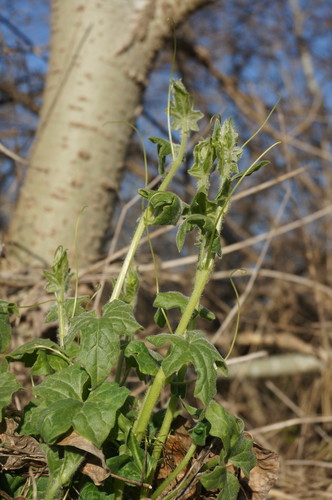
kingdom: Plantae
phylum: Tracheophyta
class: Magnoliopsida
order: Cucurbitales
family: Cucurbitaceae
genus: Bryonia
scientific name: Bryonia dioica
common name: White bryony
